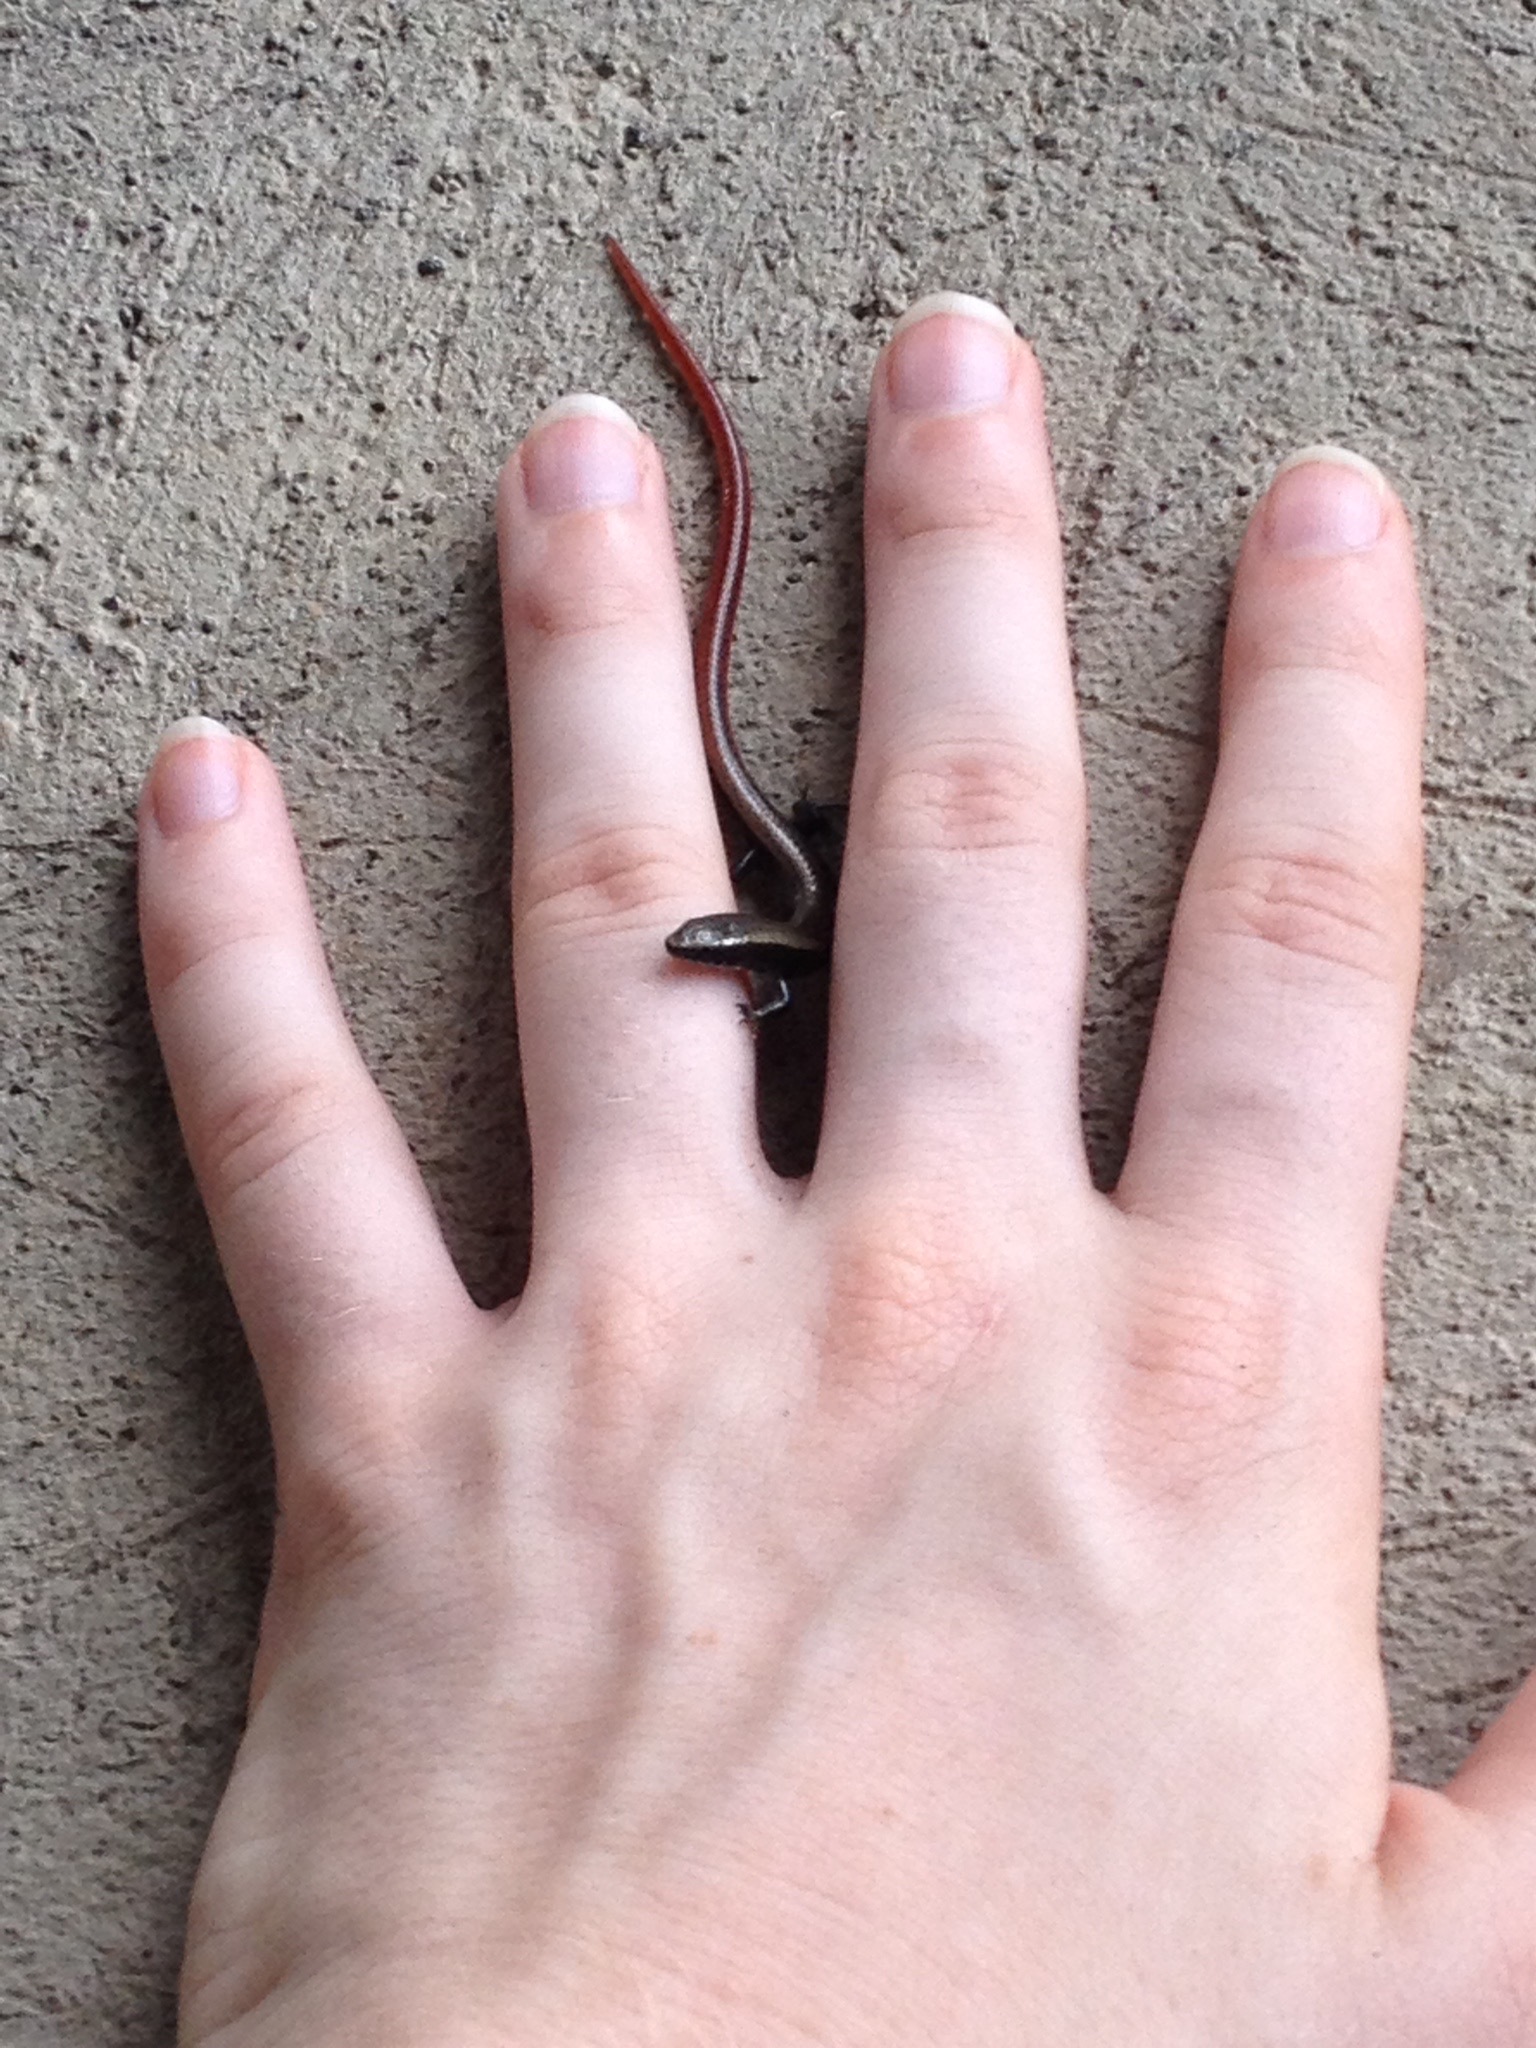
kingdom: Animalia
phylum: Chordata
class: Squamata
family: Gymnophthalmidae
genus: Gymnophthalmus
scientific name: Gymnophthalmus speciosus
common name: Golden spectacled tegu
